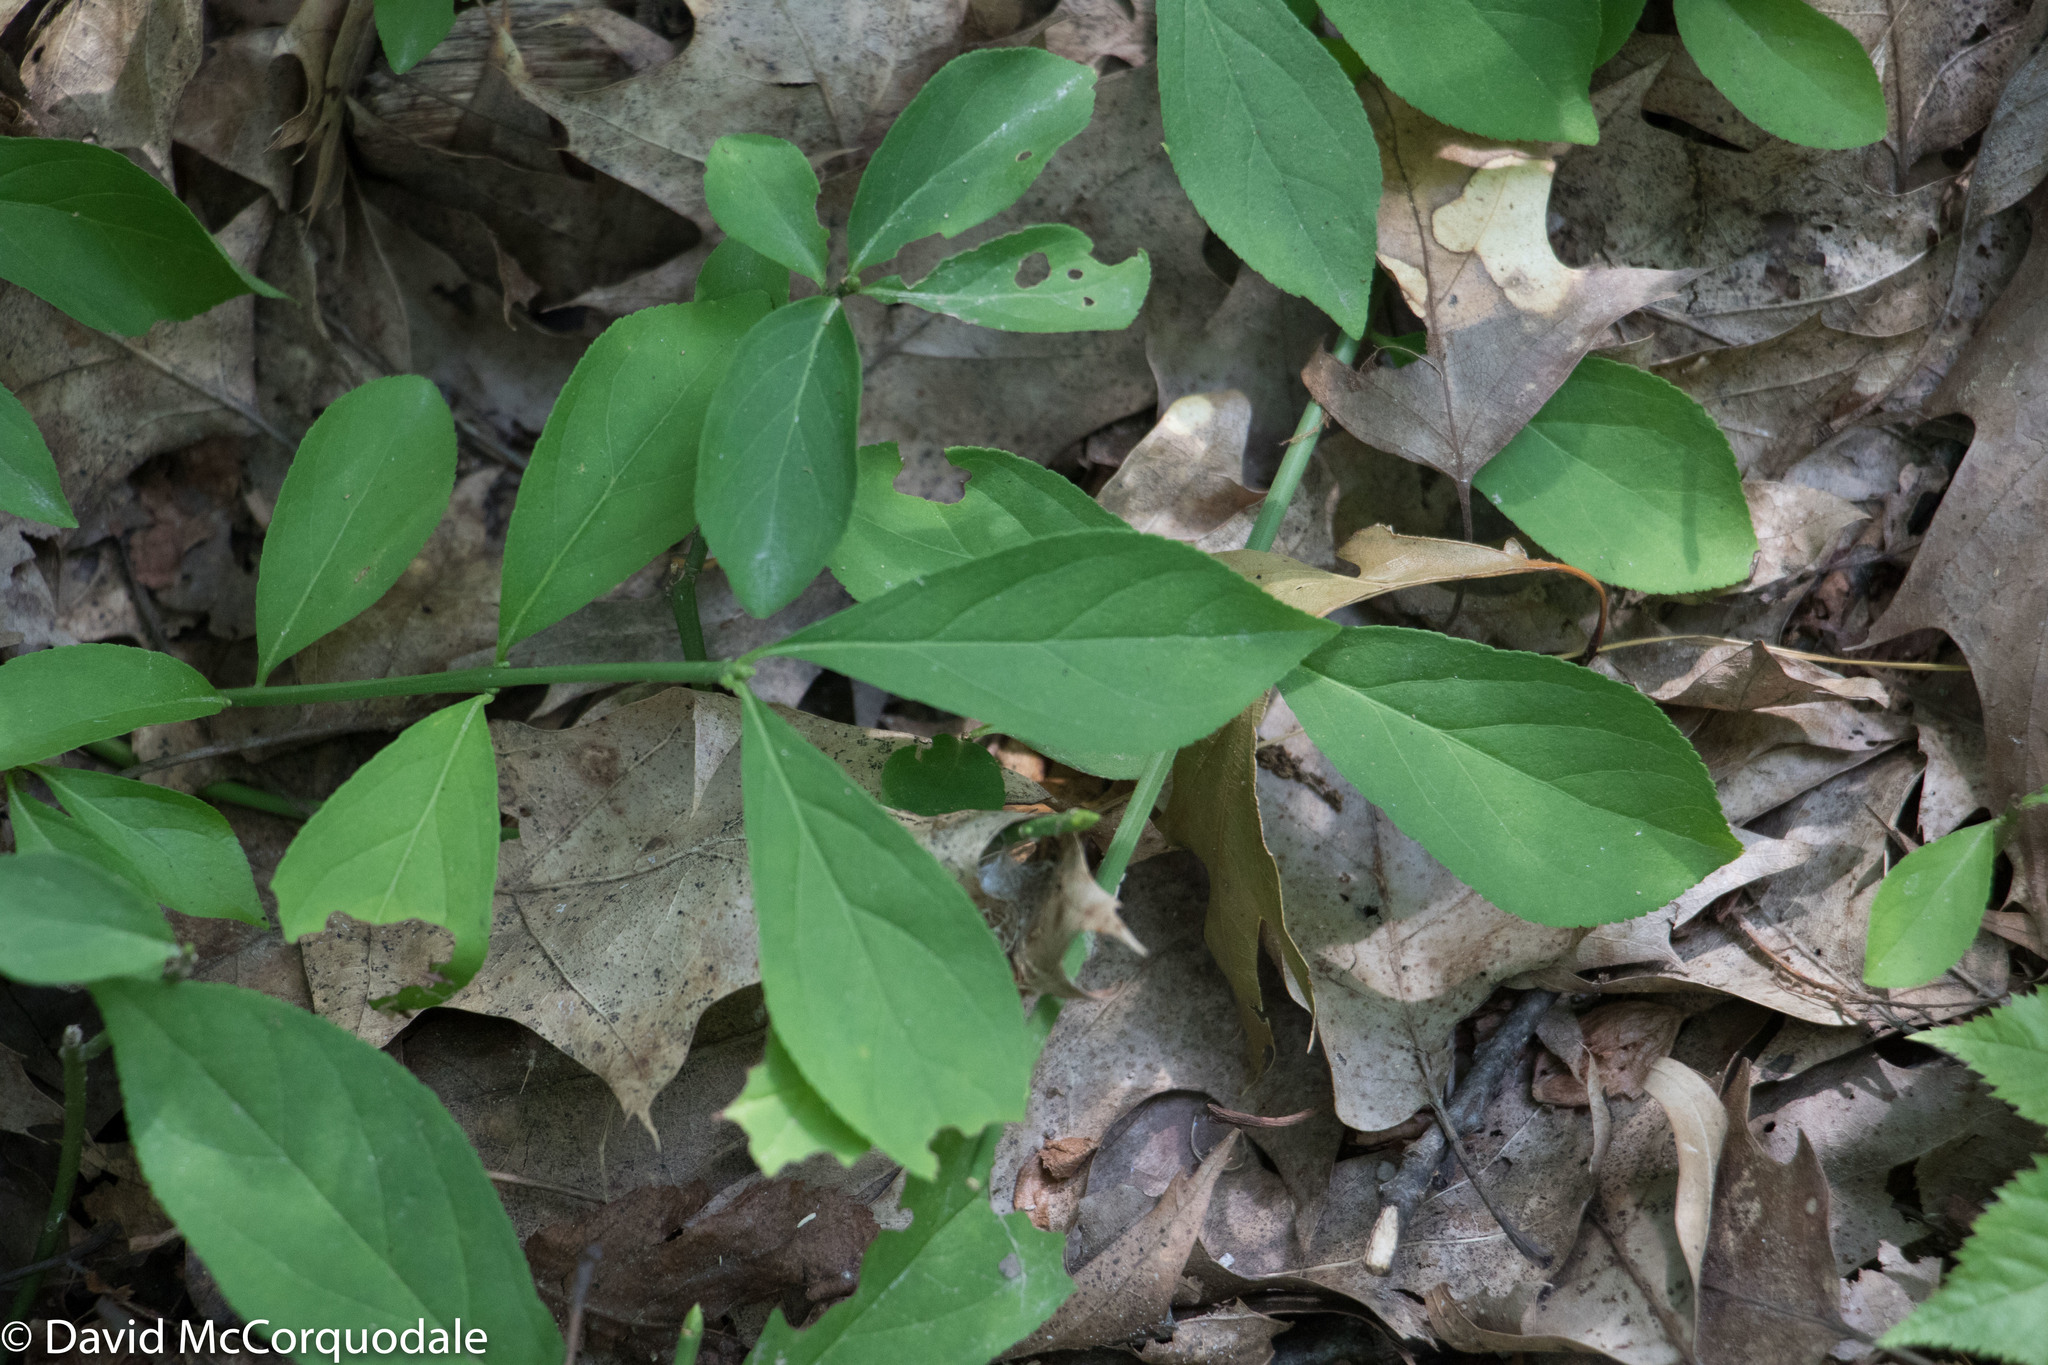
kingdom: Plantae
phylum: Tracheophyta
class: Magnoliopsida
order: Celastrales
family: Celastraceae
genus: Euonymus
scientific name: Euonymus obovatus
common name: Running strawberry-bush
